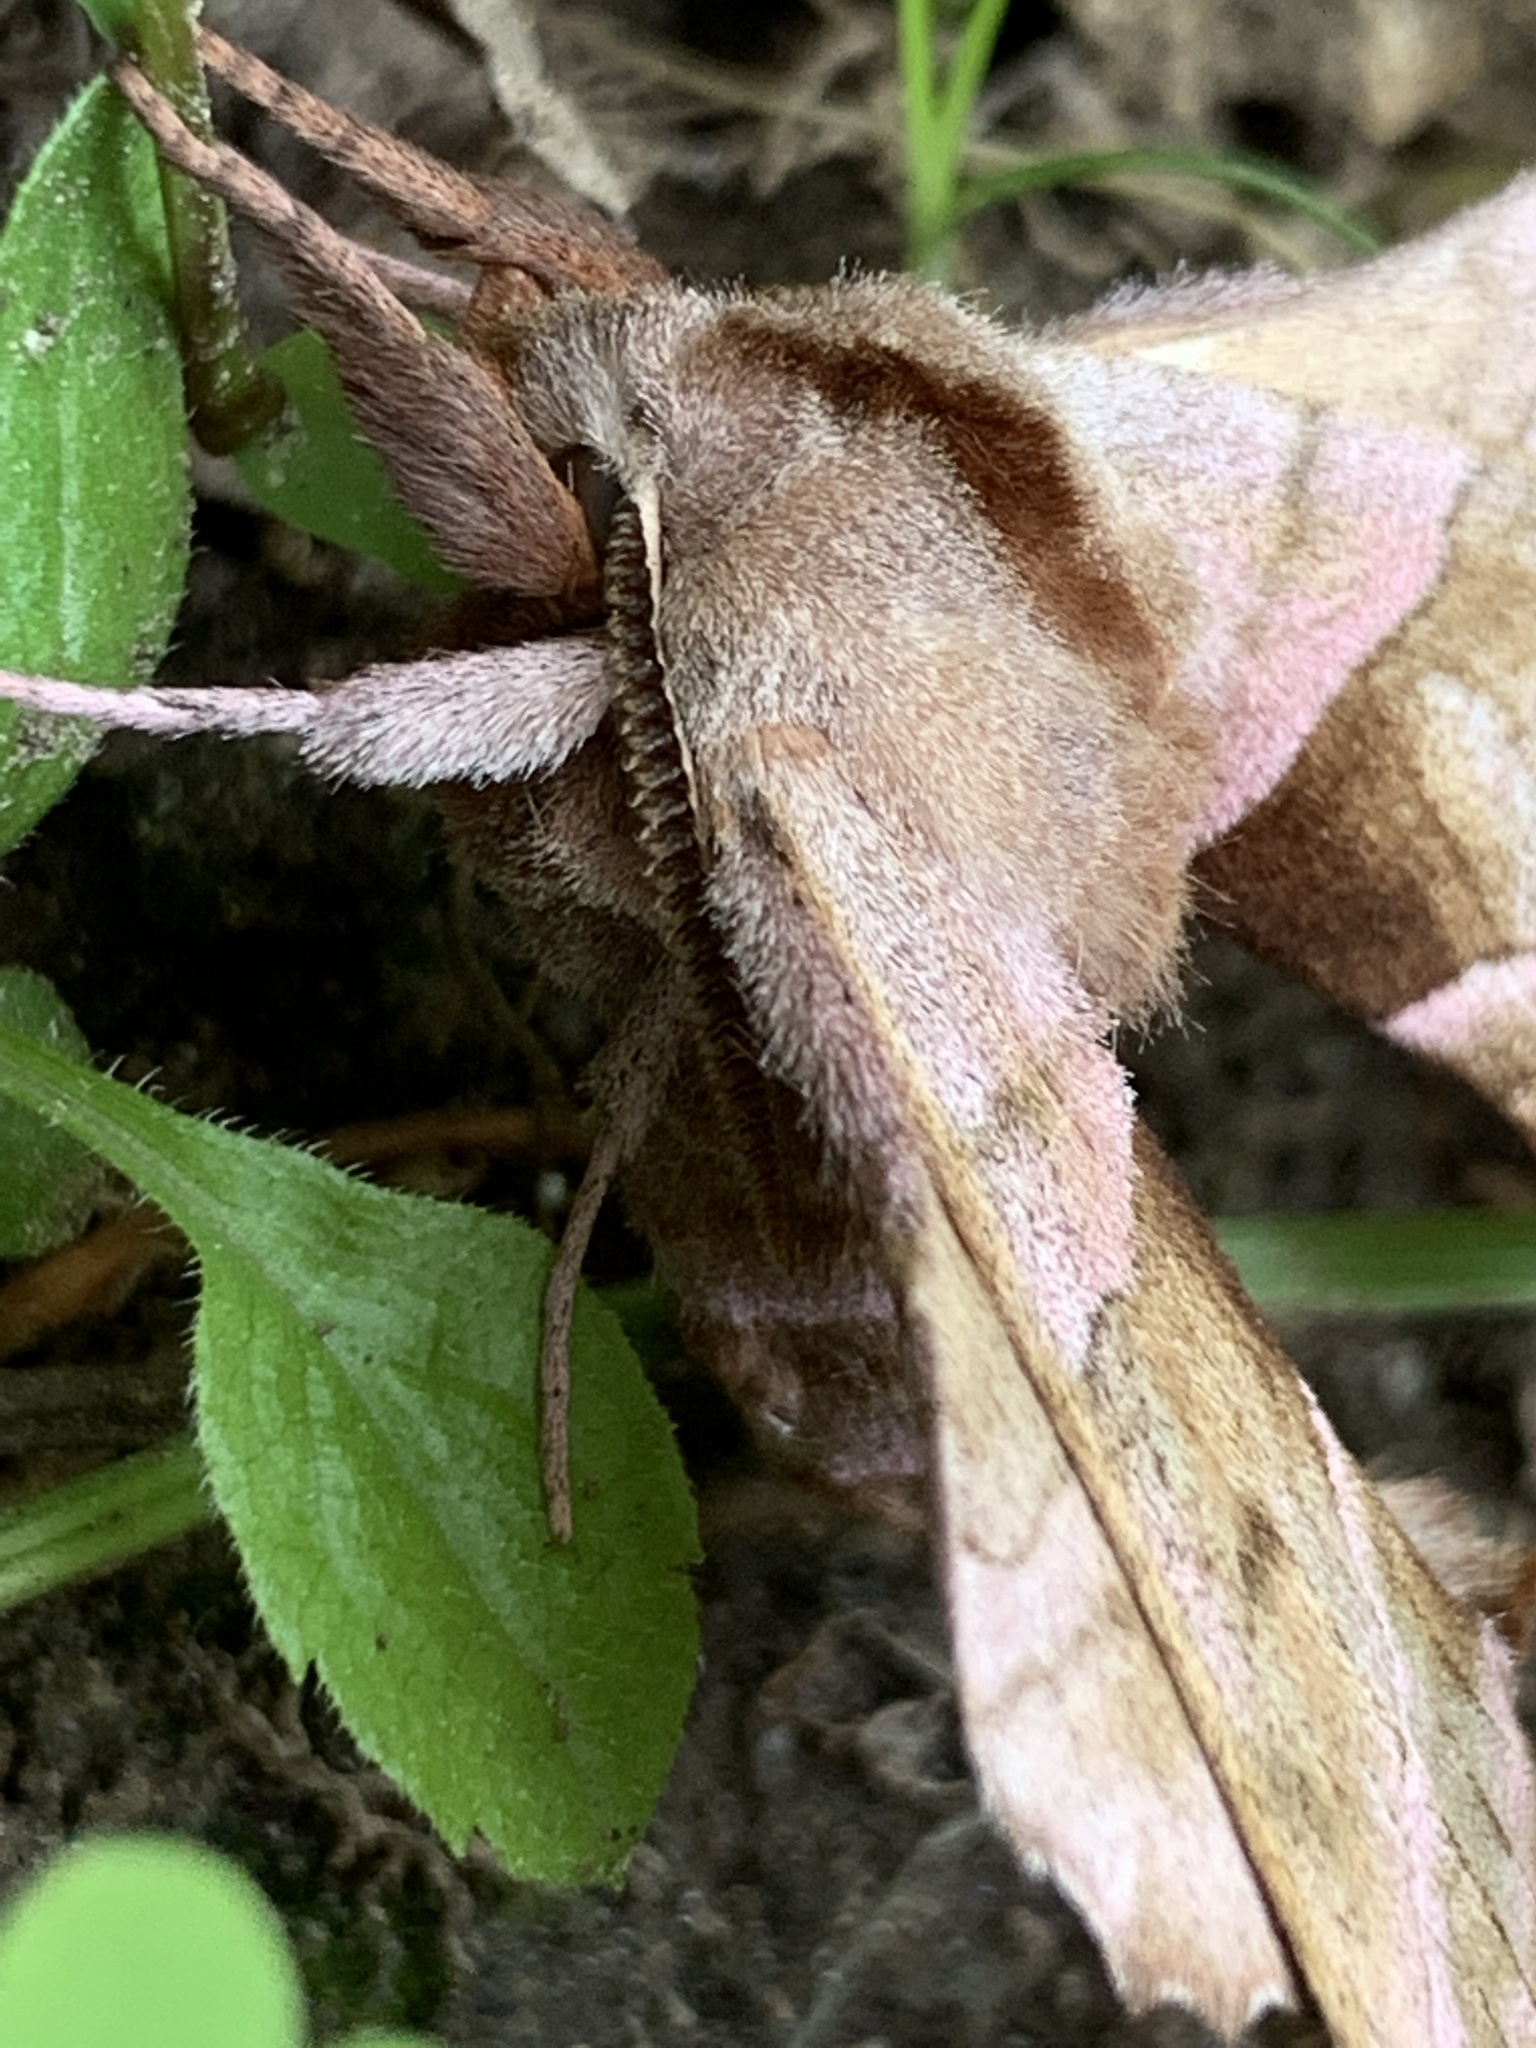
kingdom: Animalia
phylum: Arthropoda
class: Insecta
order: Lepidoptera
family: Sphingidae
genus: Amorpha
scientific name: Amorpha juglandis
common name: Walnut sphinx
